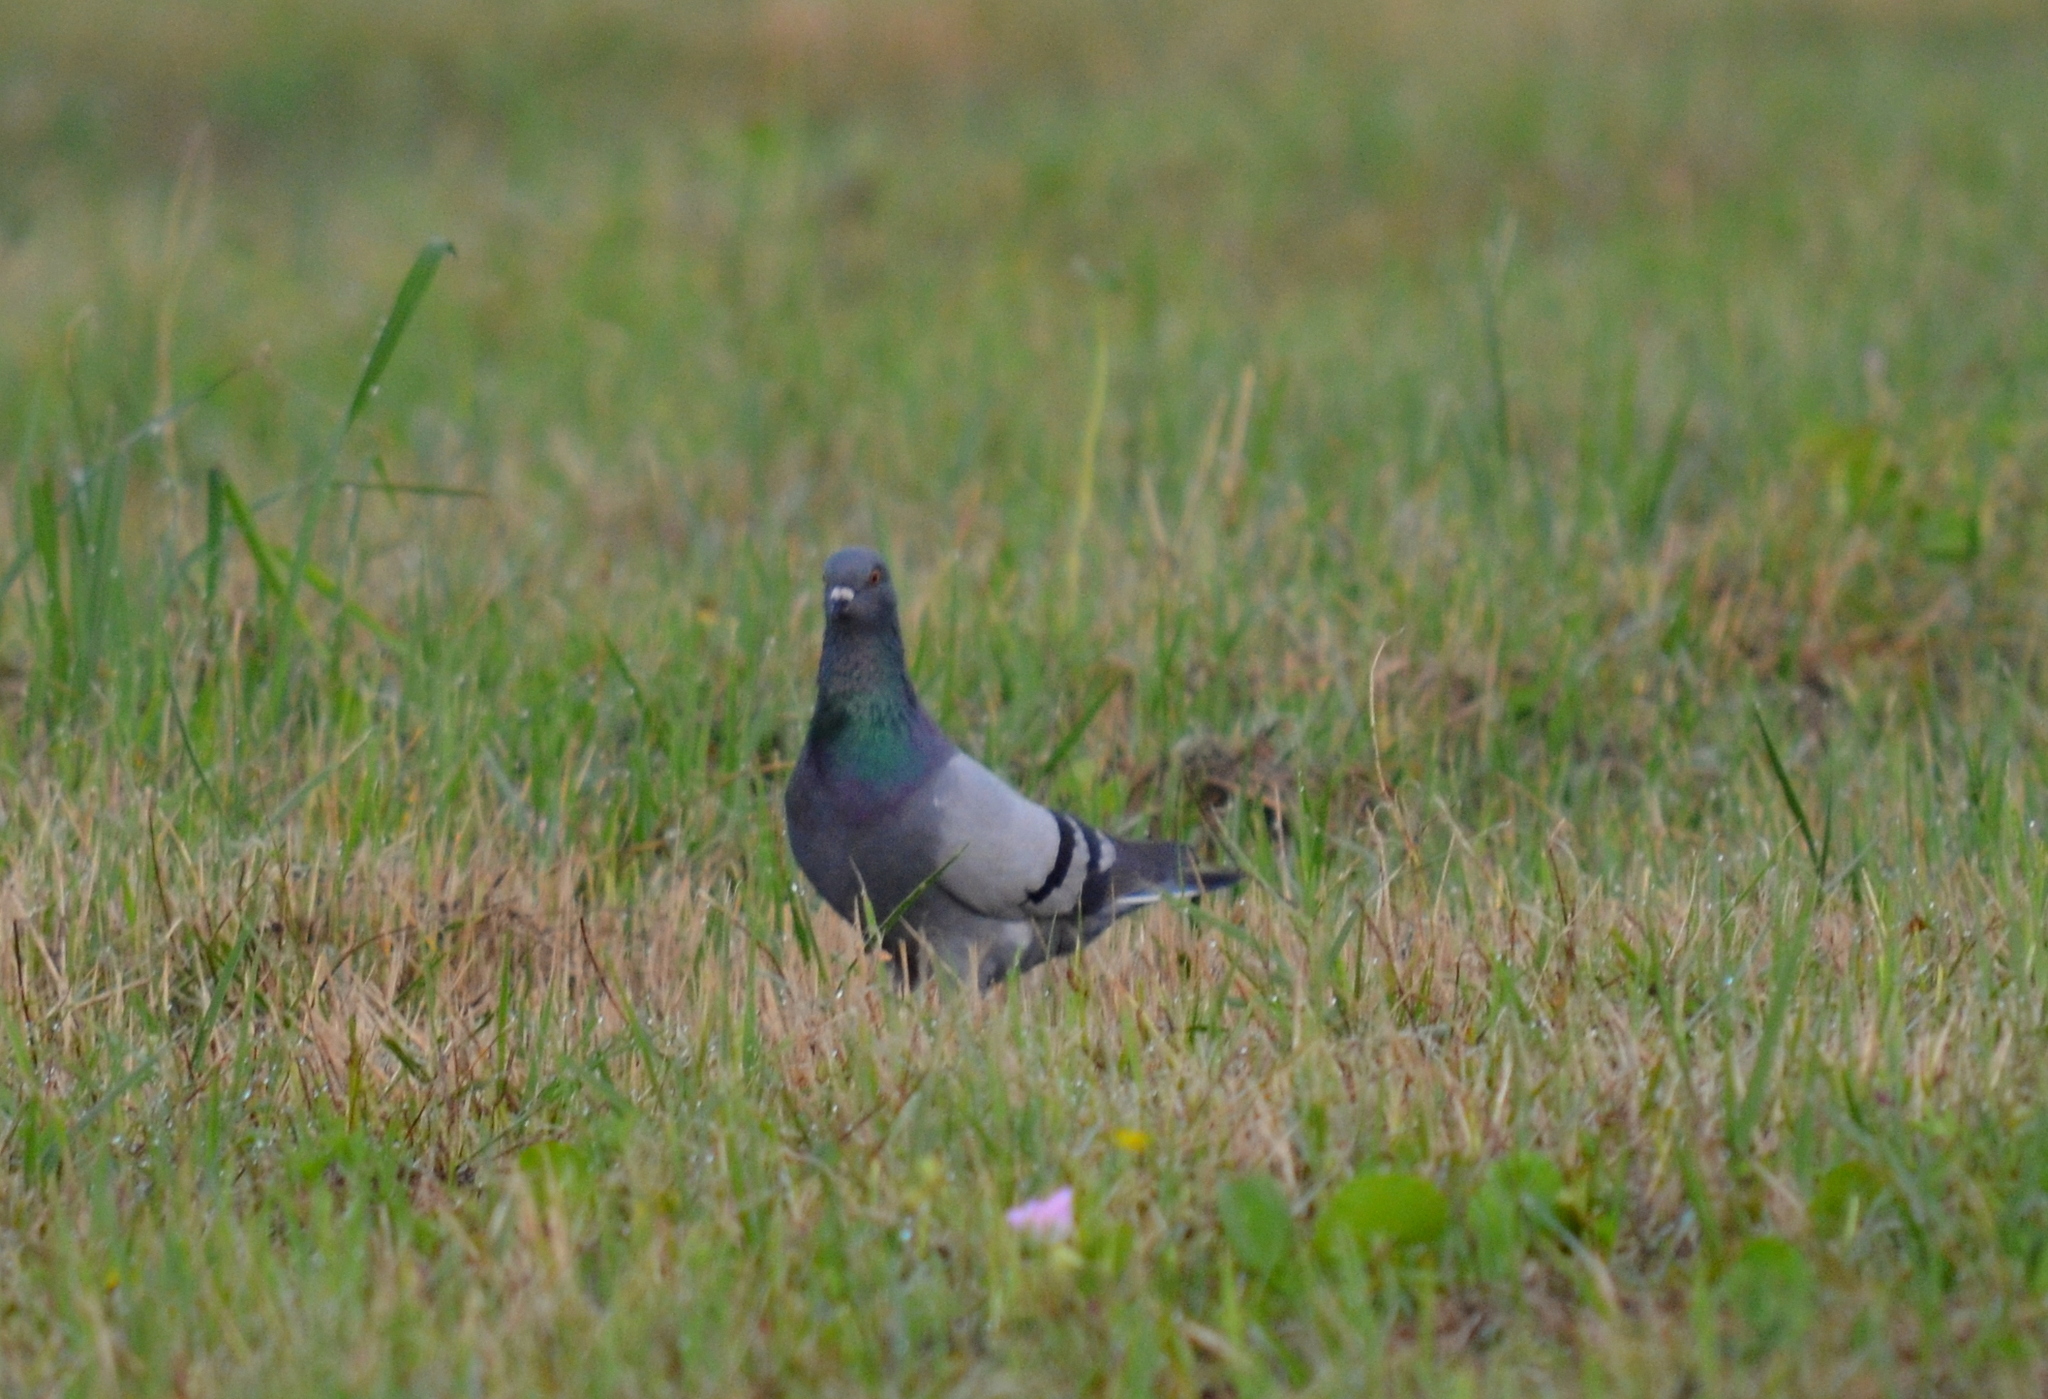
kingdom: Animalia
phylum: Chordata
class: Aves
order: Columbiformes
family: Columbidae
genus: Columba
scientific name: Columba livia
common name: Rock pigeon
